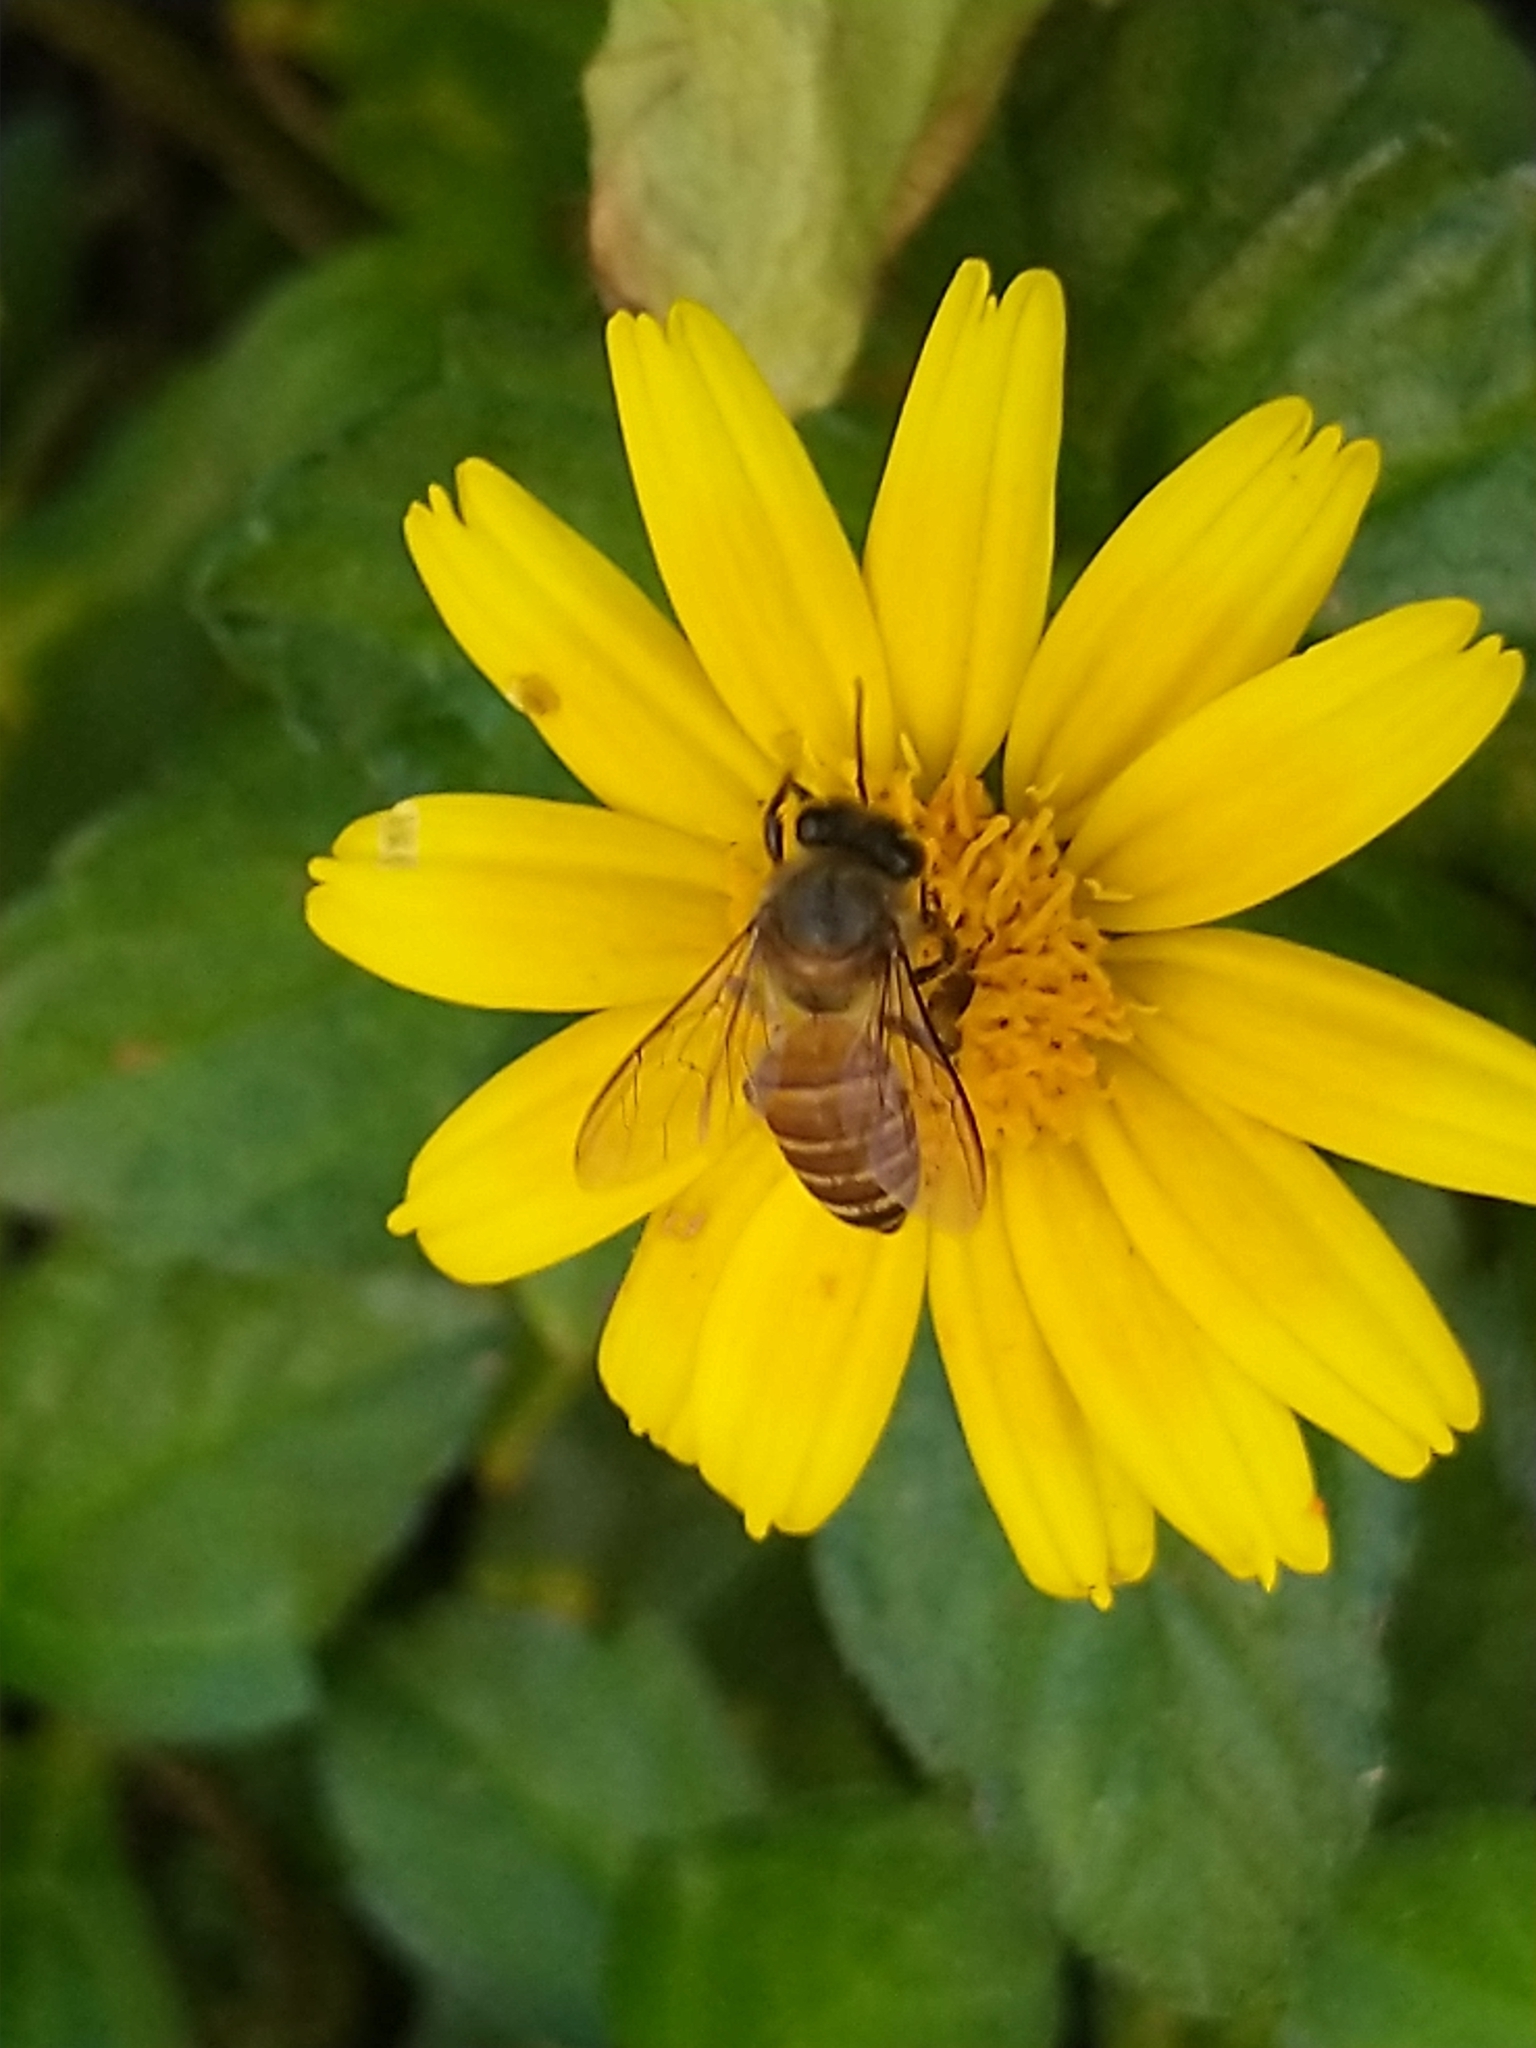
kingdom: Animalia
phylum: Arthropoda
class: Insecta
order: Hymenoptera
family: Apidae
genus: Apis
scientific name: Apis cerana
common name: Honey bee
